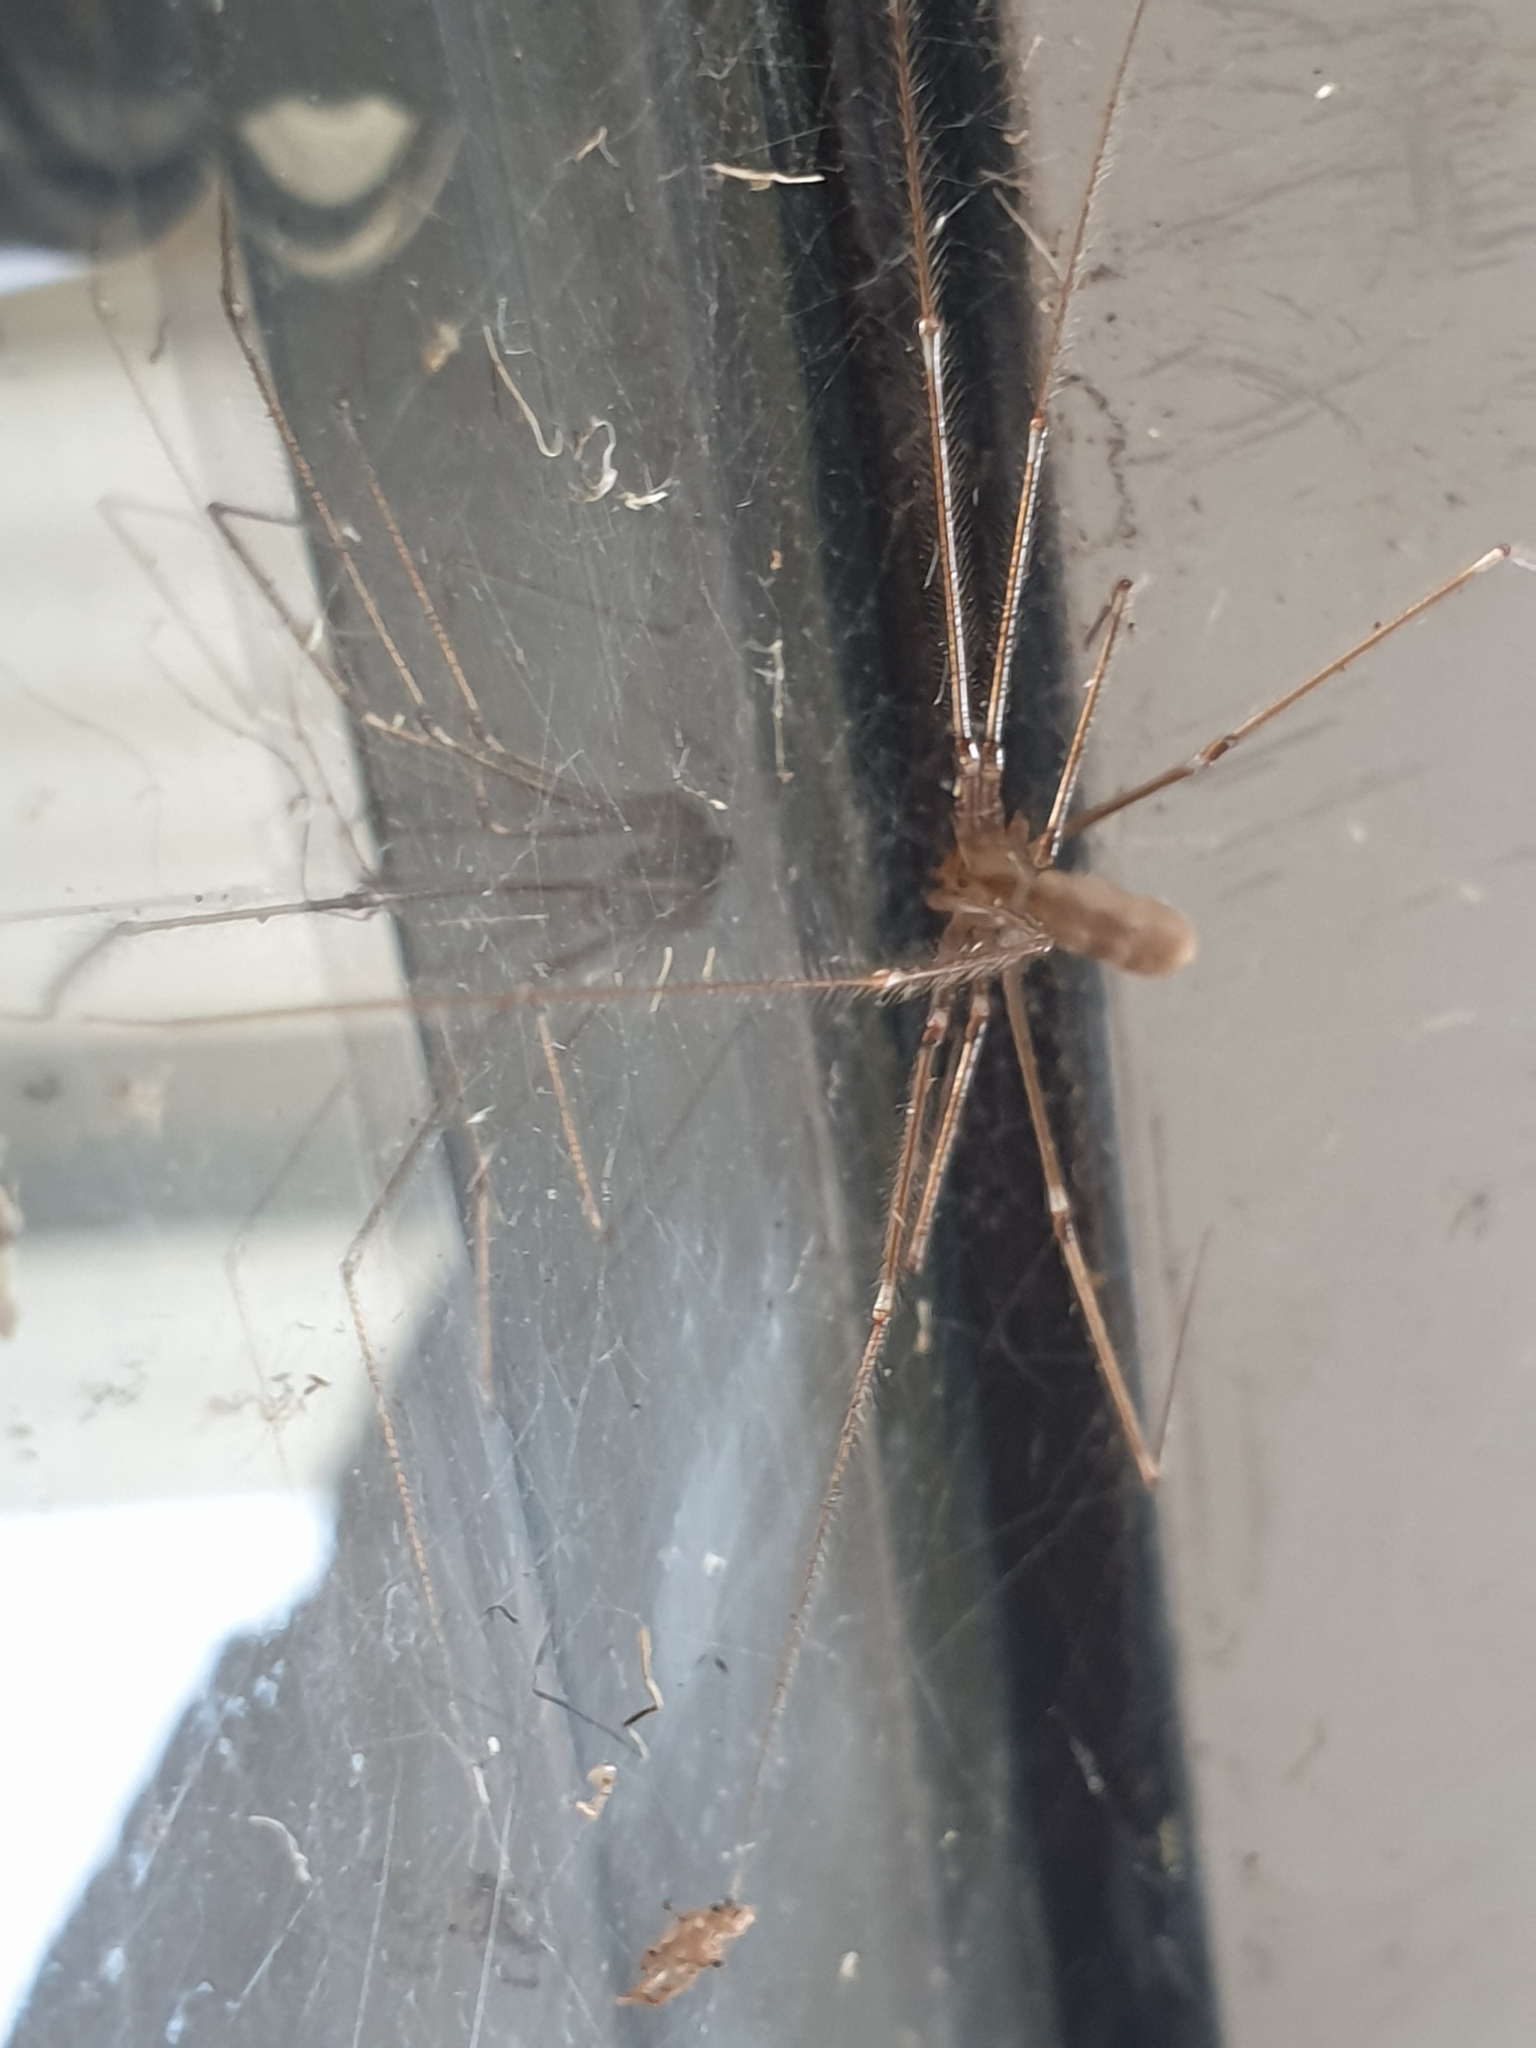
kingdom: Animalia
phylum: Arthropoda
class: Arachnida
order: Araneae
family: Pholcidae
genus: Pholcus
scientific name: Pholcus phalangioides
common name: Longbodied cellar spider
